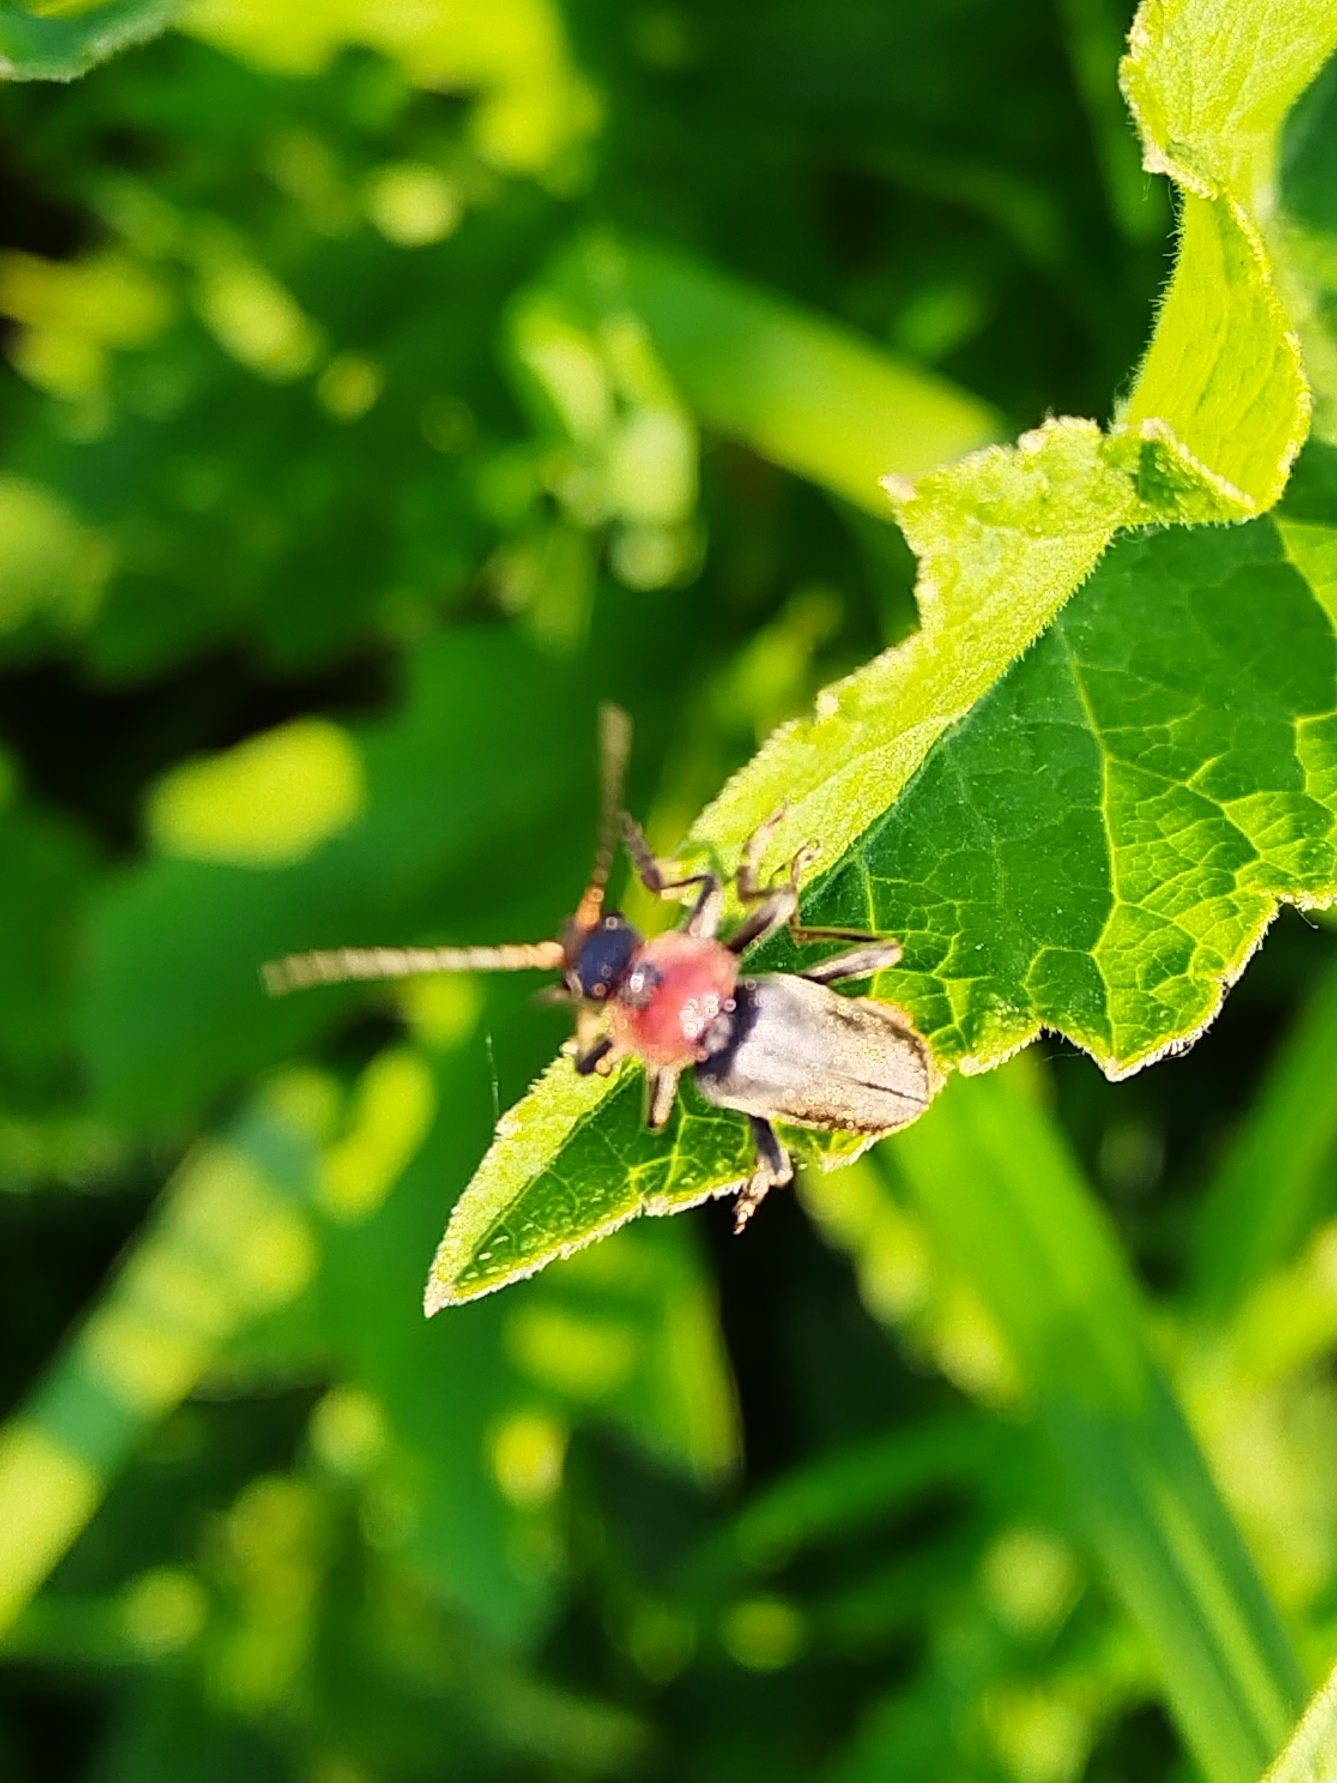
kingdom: Animalia
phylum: Arthropoda
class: Insecta
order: Coleoptera
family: Cantharidae
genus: Cantharis
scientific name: Cantharis fusca
